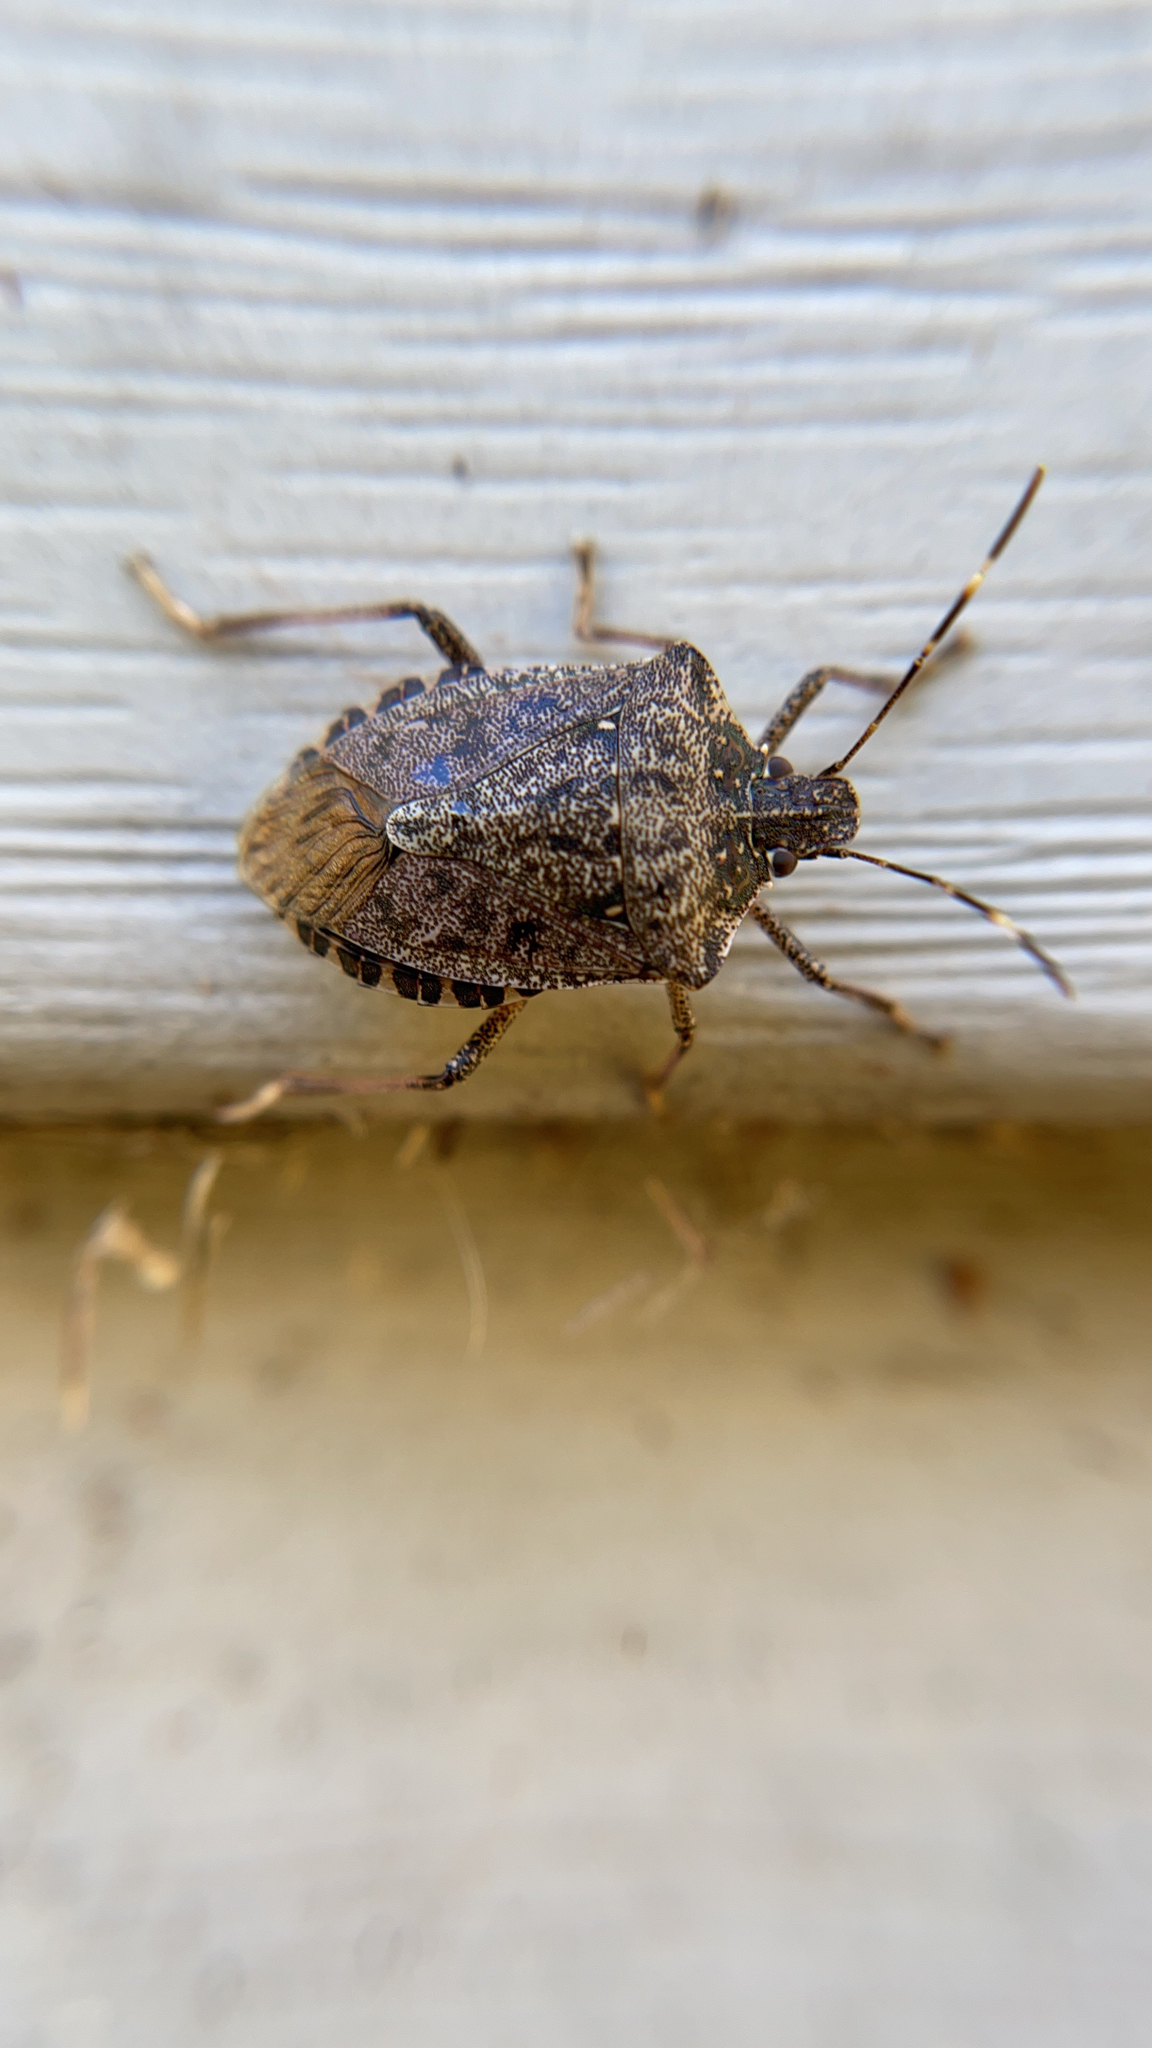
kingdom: Animalia
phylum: Arthropoda
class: Insecta
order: Hemiptera
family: Pentatomidae
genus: Halyomorpha
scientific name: Halyomorpha halys
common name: Brown marmorated stink bug
